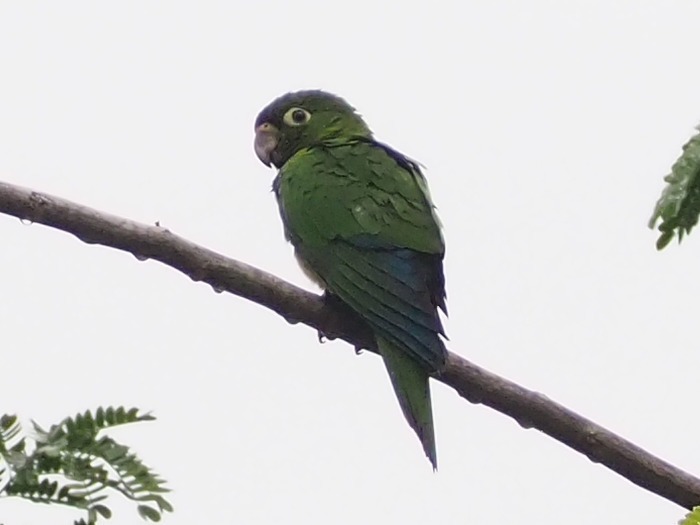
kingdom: Animalia
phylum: Chordata
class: Aves
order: Psittaciformes
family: Psittacidae
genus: Aratinga
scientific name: Aratinga nana
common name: Olive-throated parakeet
